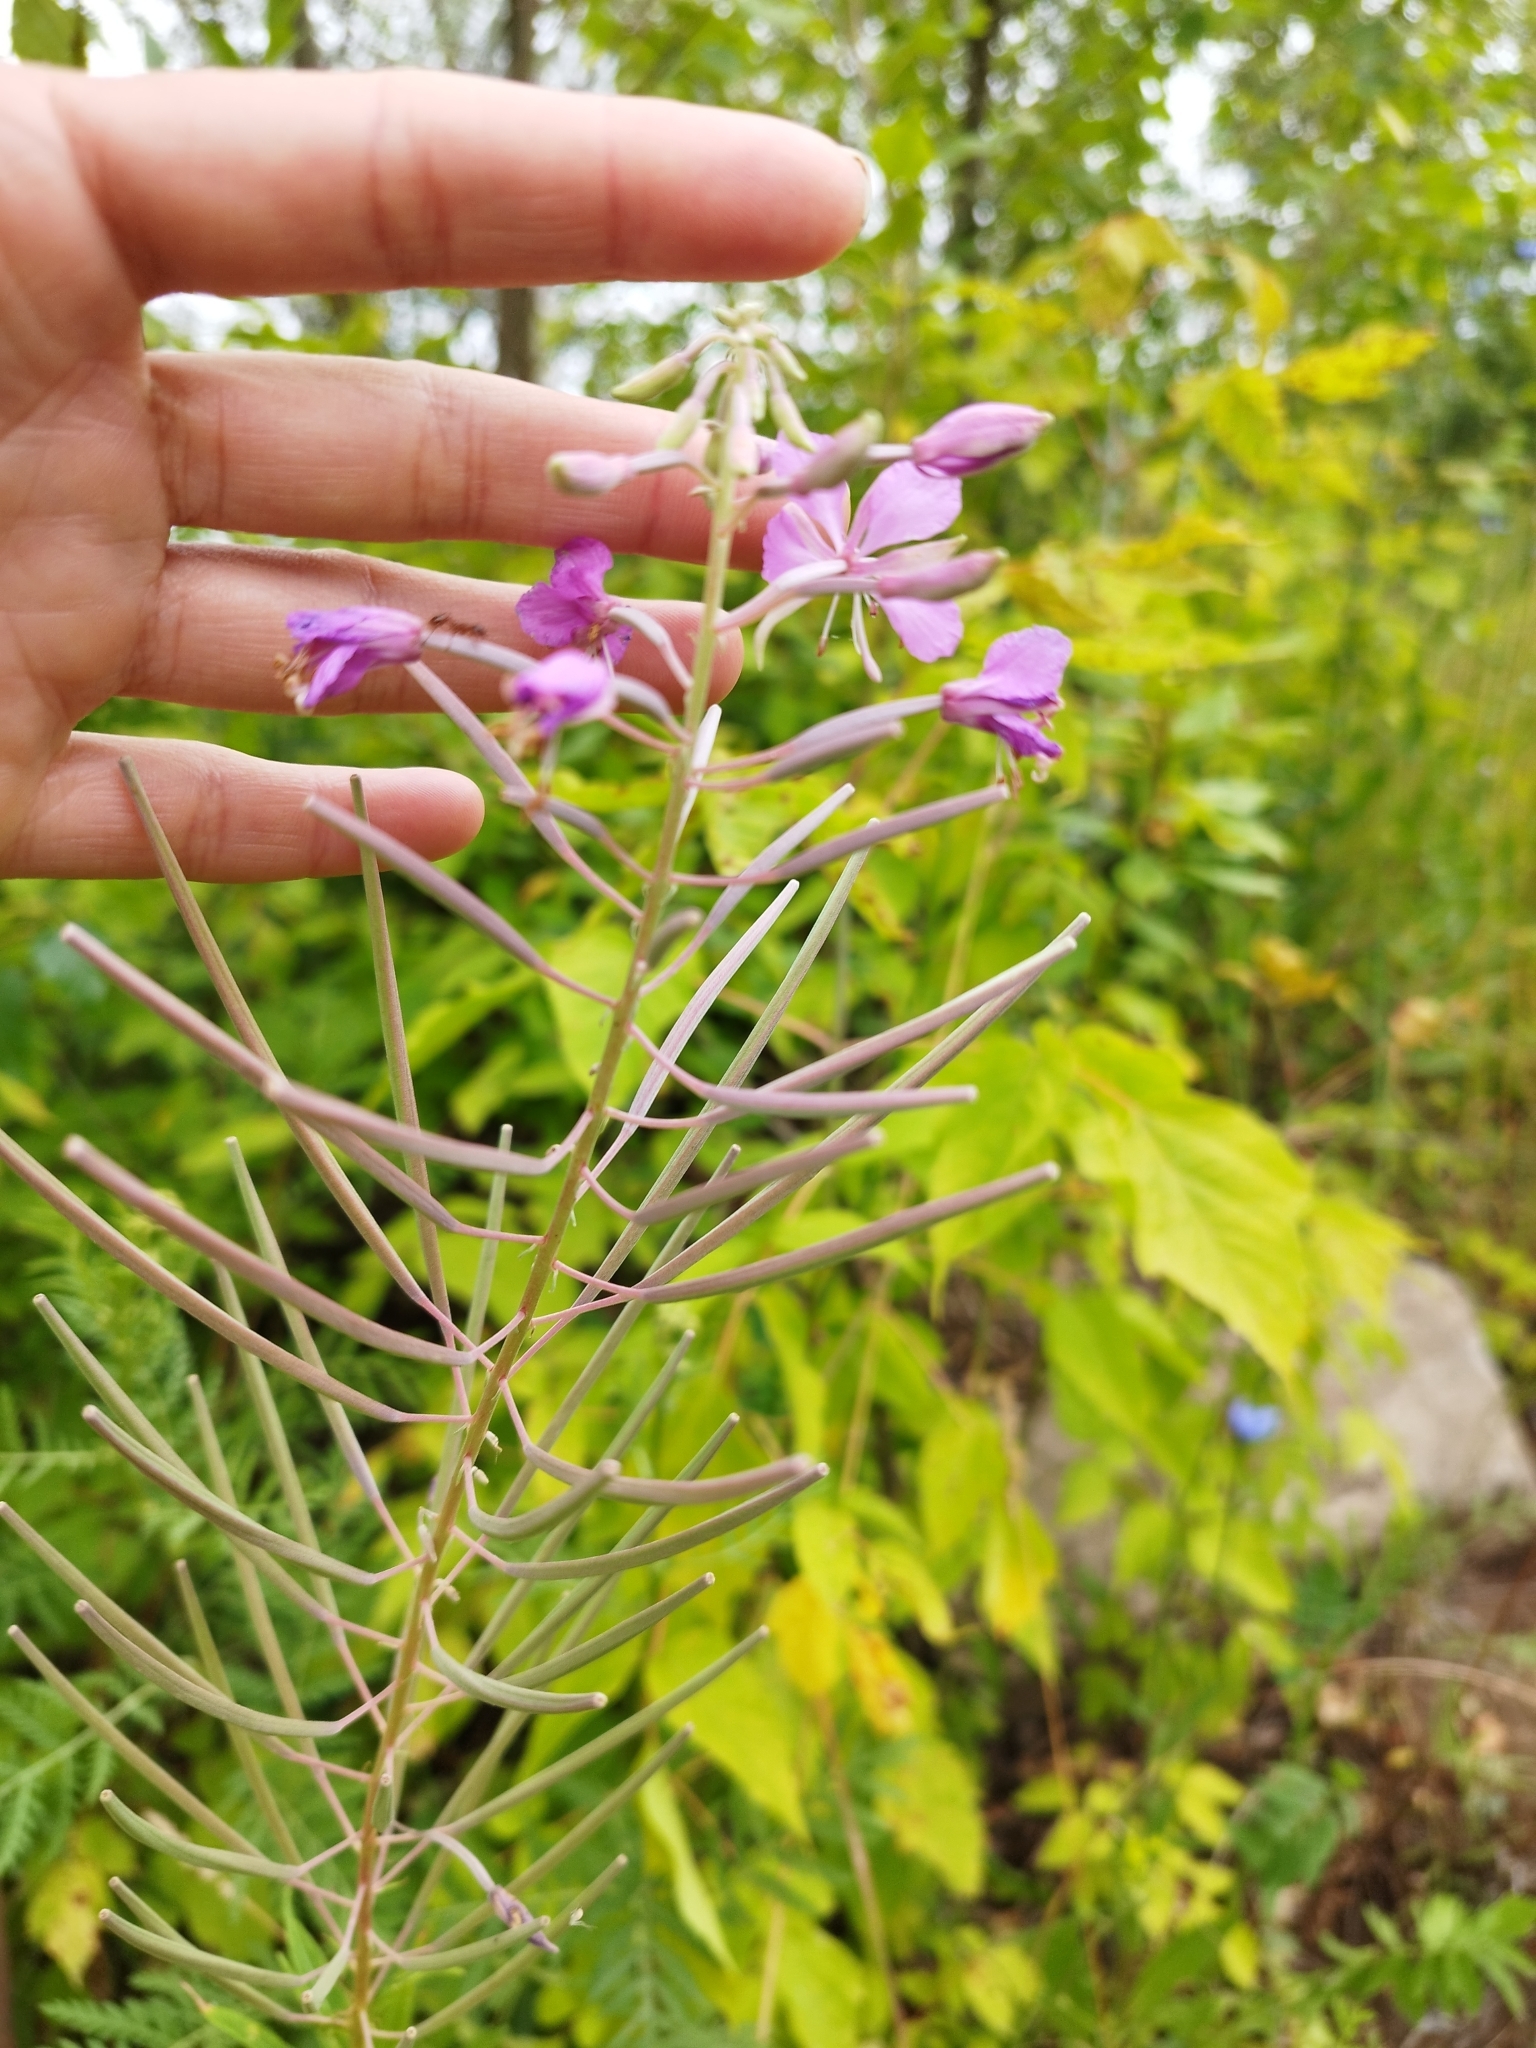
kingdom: Plantae
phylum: Tracheophyta
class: Magnoliopsida
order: Myrtales
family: Onagraceae
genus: Chamaenerion
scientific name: Chamaenerion angustifolium
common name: Fireweed
